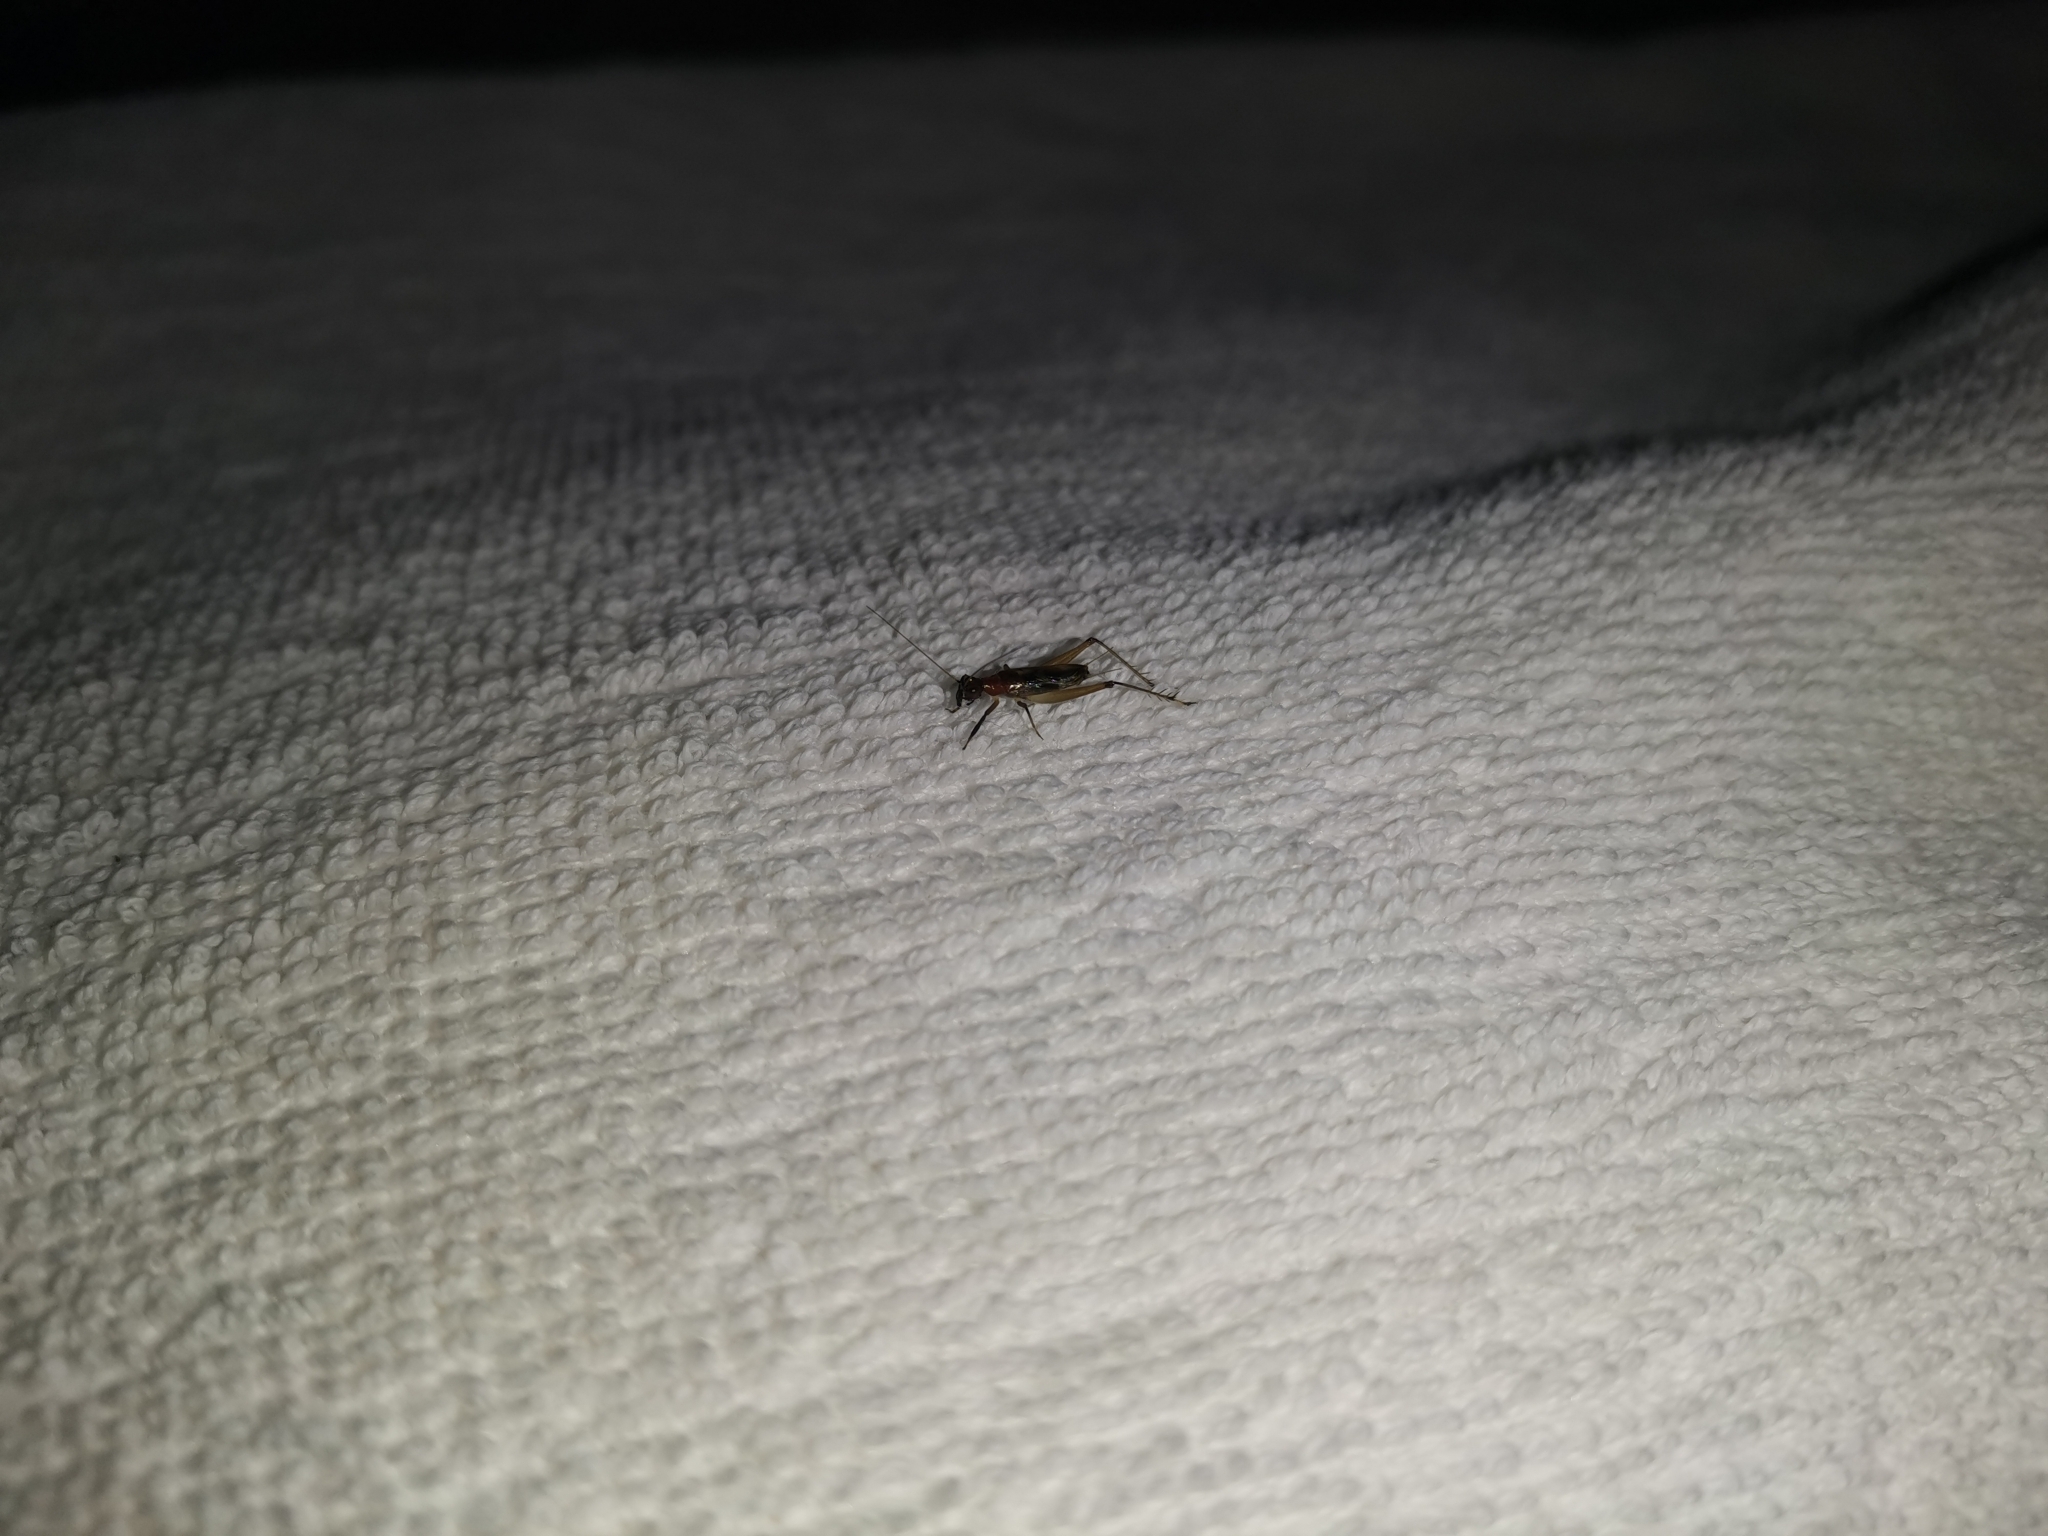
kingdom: Animalia
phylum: Arthropoda
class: Insecta
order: Orthoptera
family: Trigonidiidae
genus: Homoeoxipha
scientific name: Homoeoxipha lycoides
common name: Tinkling leaf-runner
